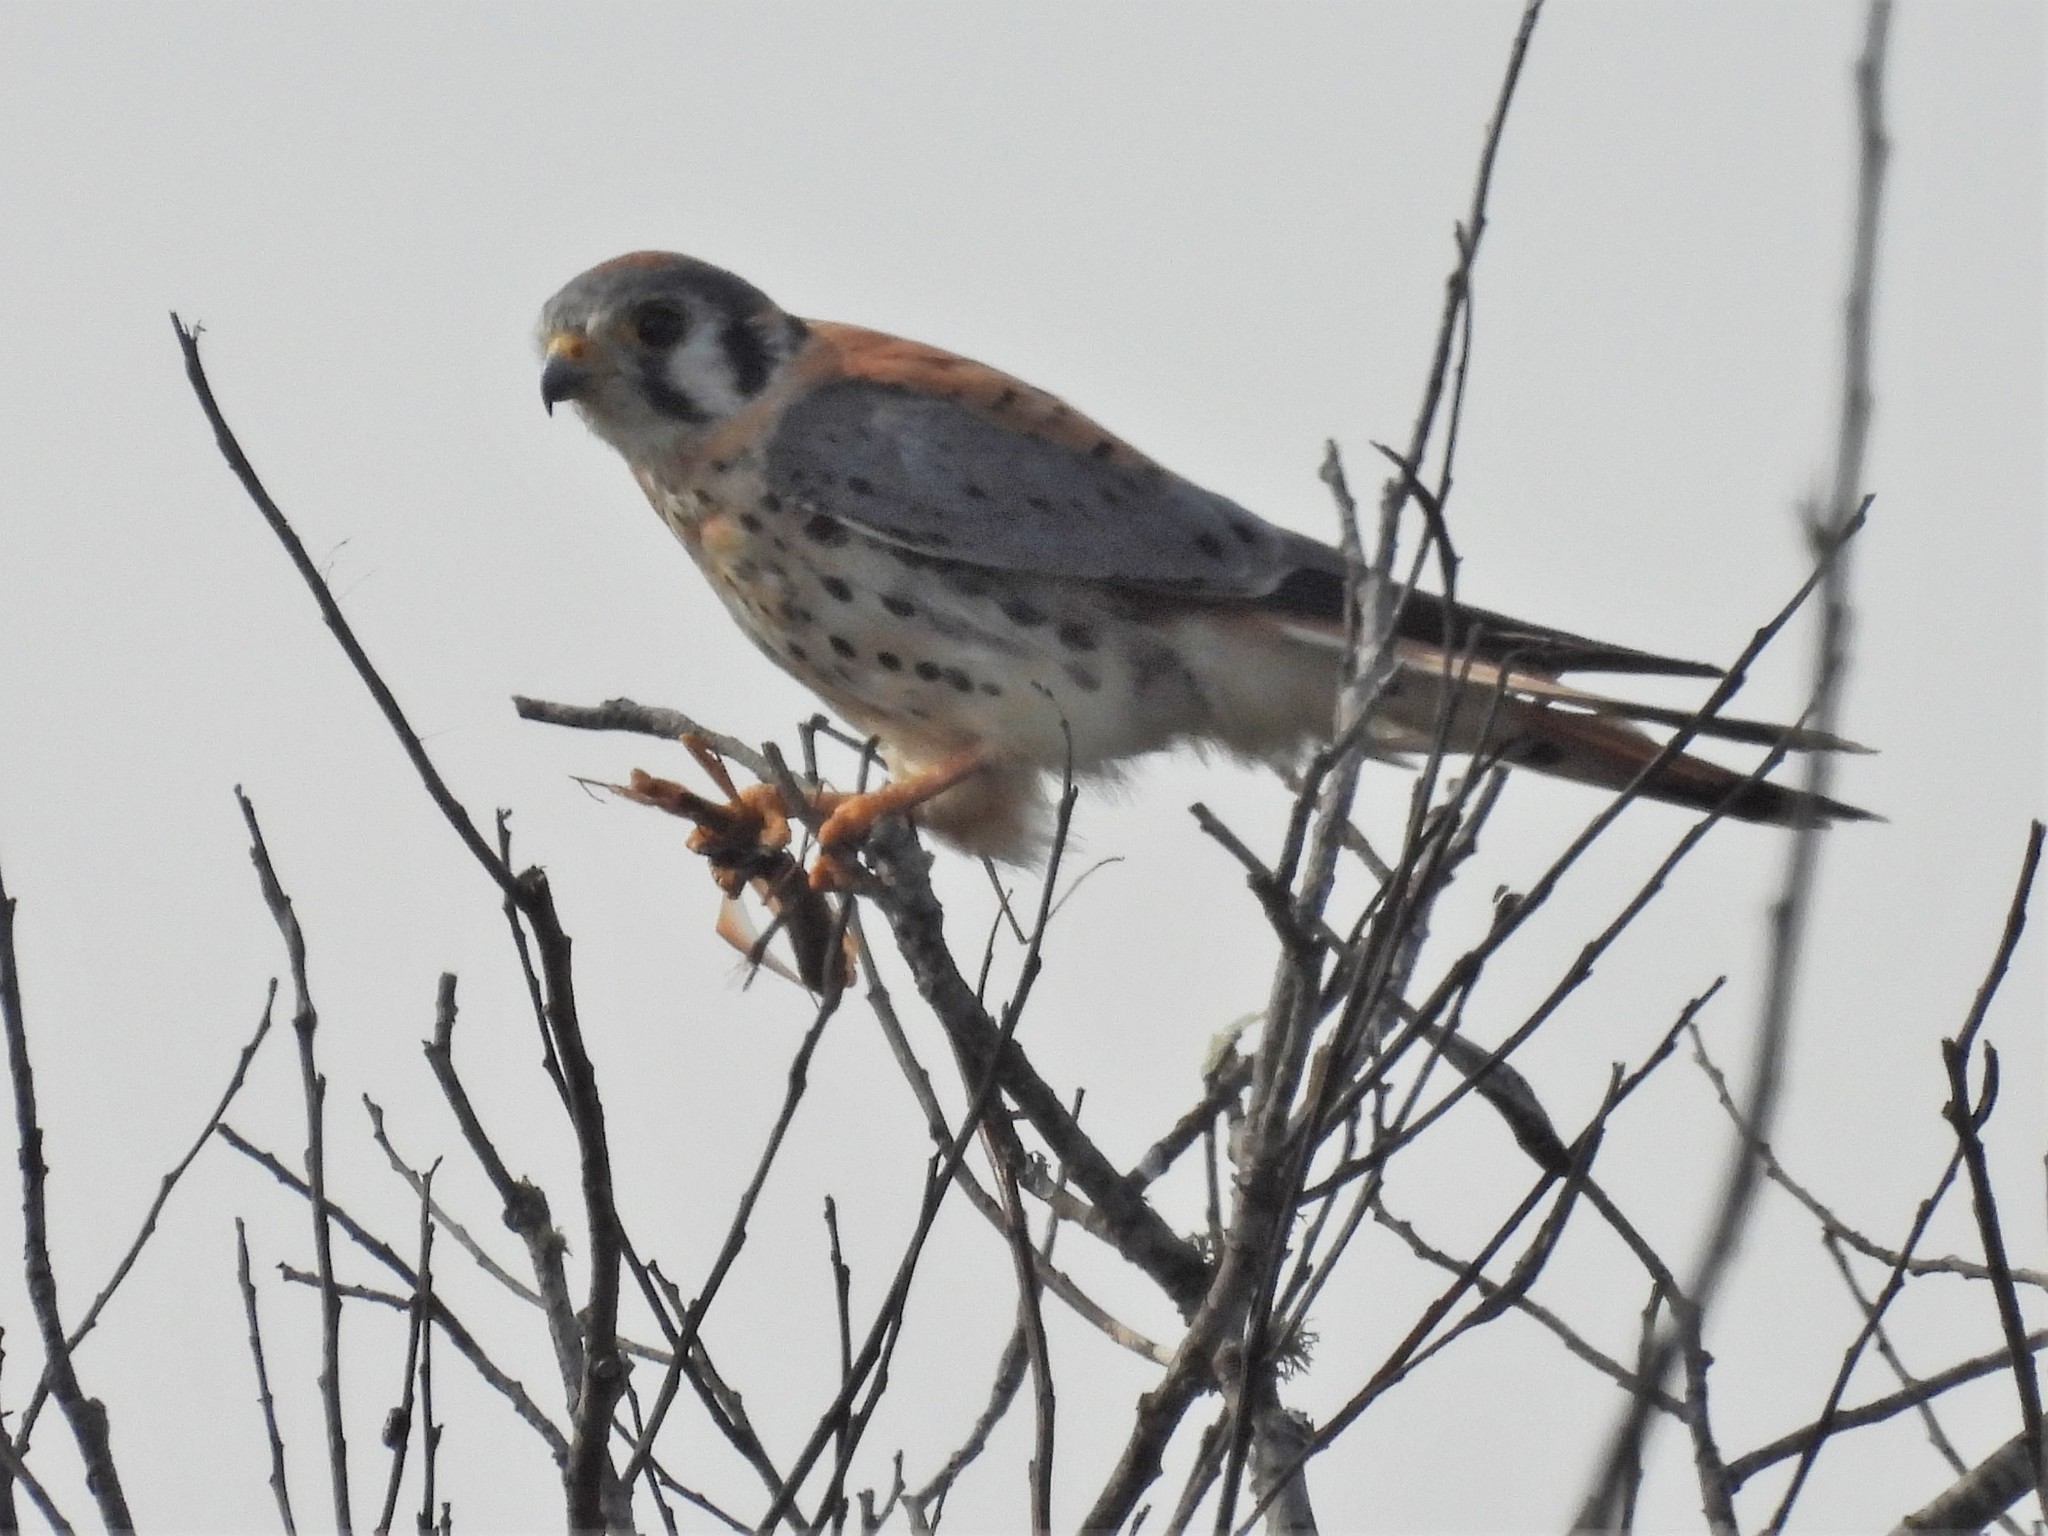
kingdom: Animalia
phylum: Chordata
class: Aves
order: Falconiformes
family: Falconidae
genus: Falco
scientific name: Falco sparverius
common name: American kestrel
